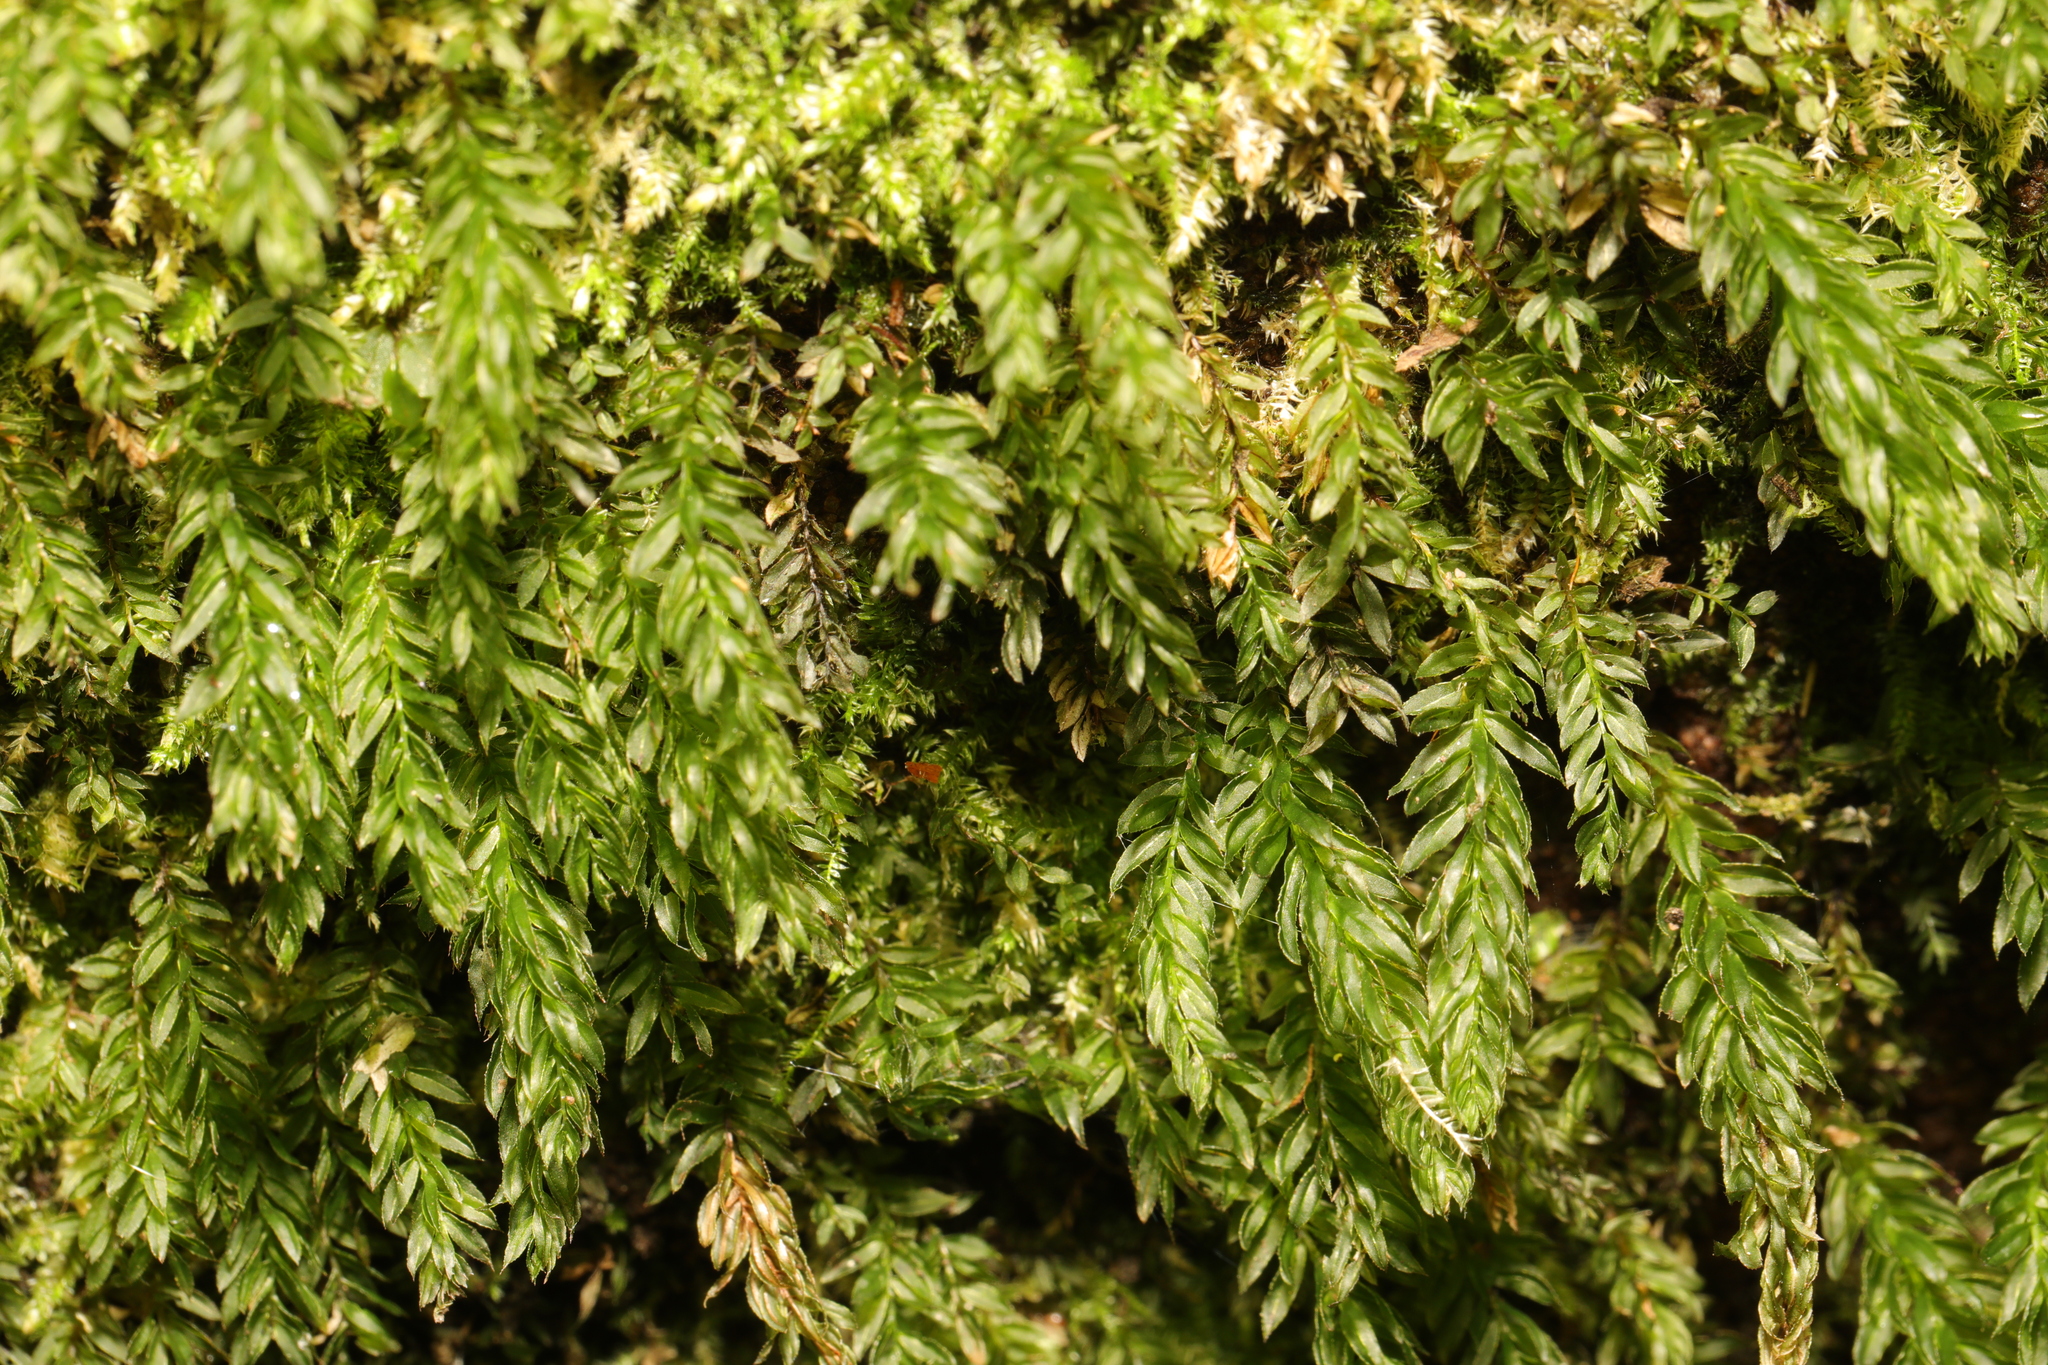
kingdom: Plantae
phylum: Bryophyta
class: Bryopsida
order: Bryales
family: Mniaceae
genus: Mnium
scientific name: Mnium hornum
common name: Swan's-neck leafy moss
